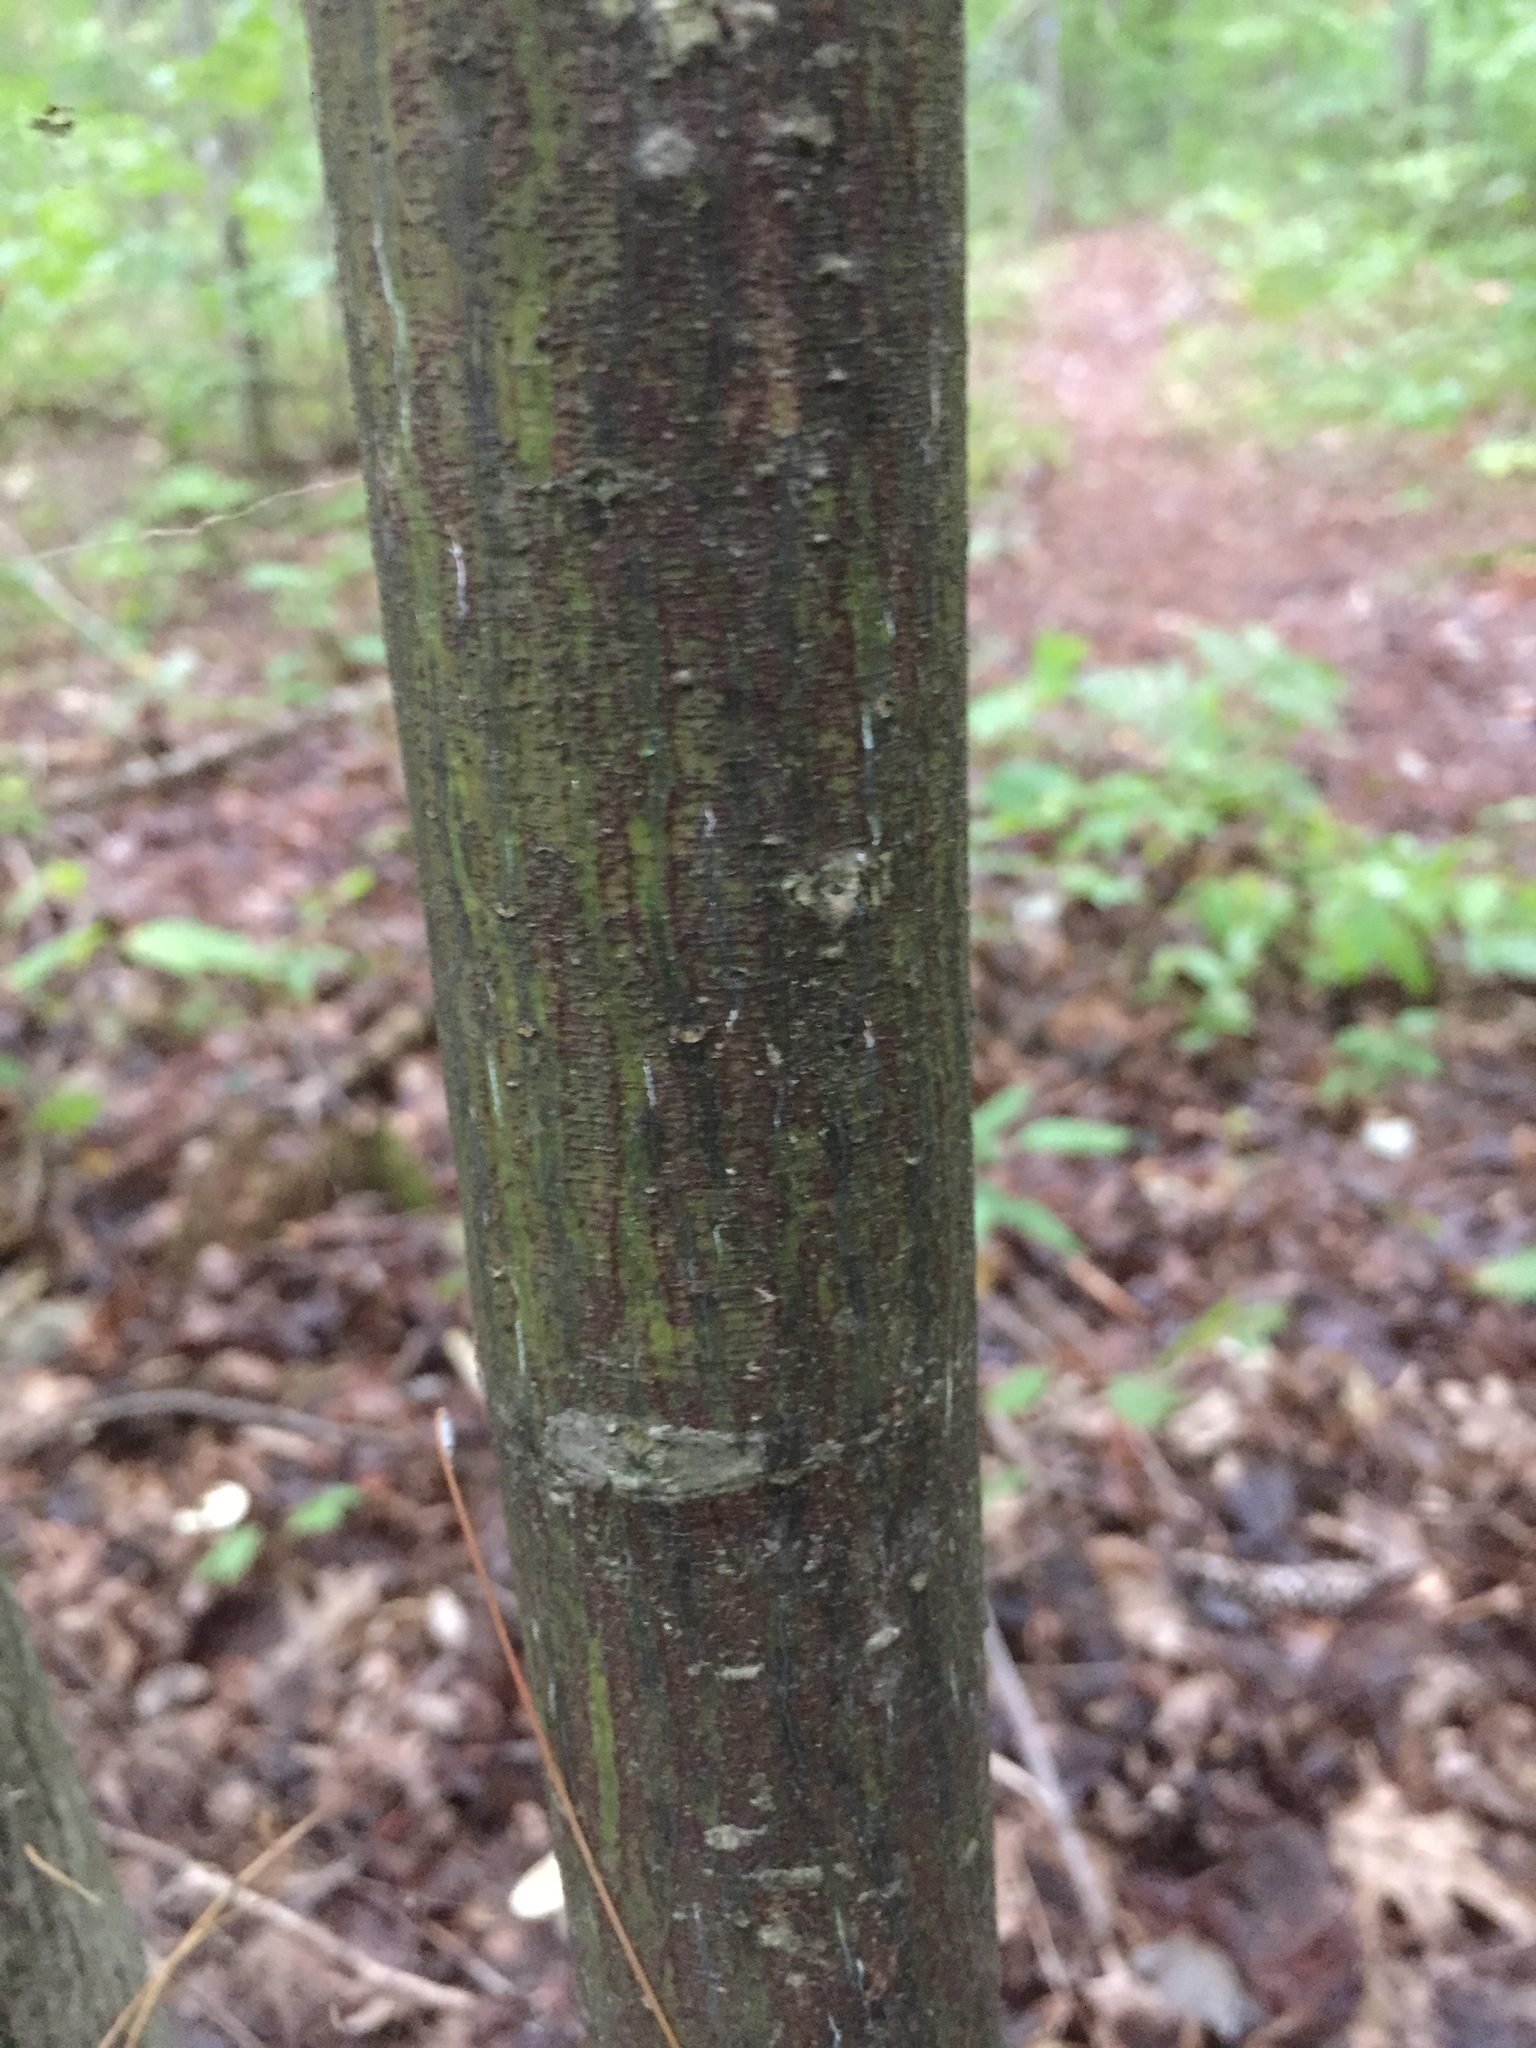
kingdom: Plantae
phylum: Tracheophyta
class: Magnoliopsida
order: Sapindales
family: Sapindaceae
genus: Acer
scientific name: Acer pensylvanicum
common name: Moosewood
